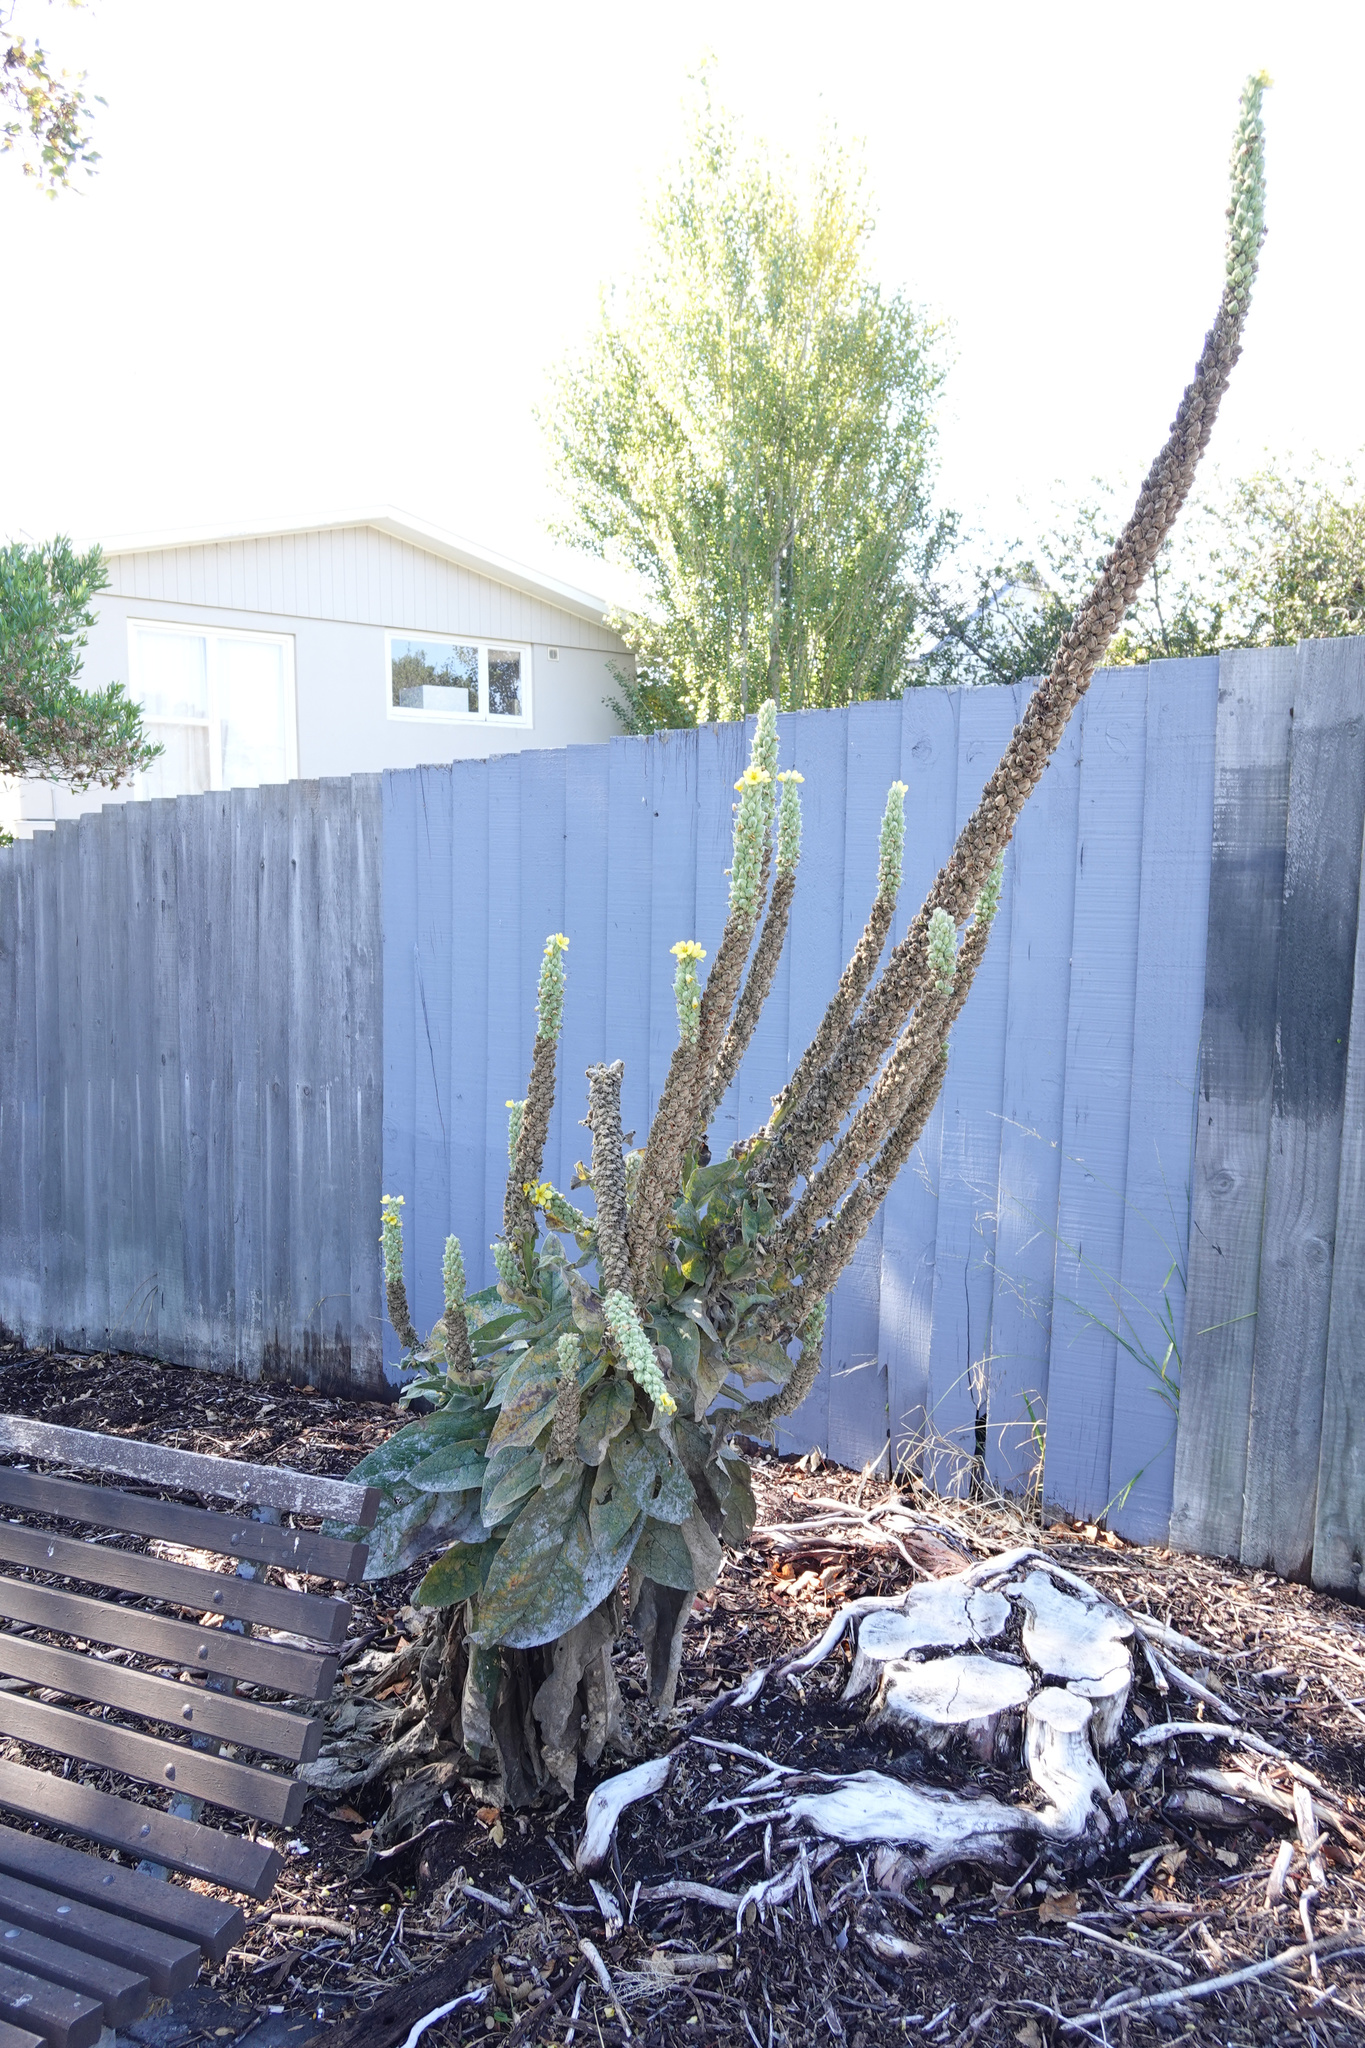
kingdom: Plantae
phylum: Tracheophyta
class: Magnoliopsida
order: Lamiales
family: Scrophulariaceae
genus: Verbascum
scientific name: Verbascum thapsus
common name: Common mullein
